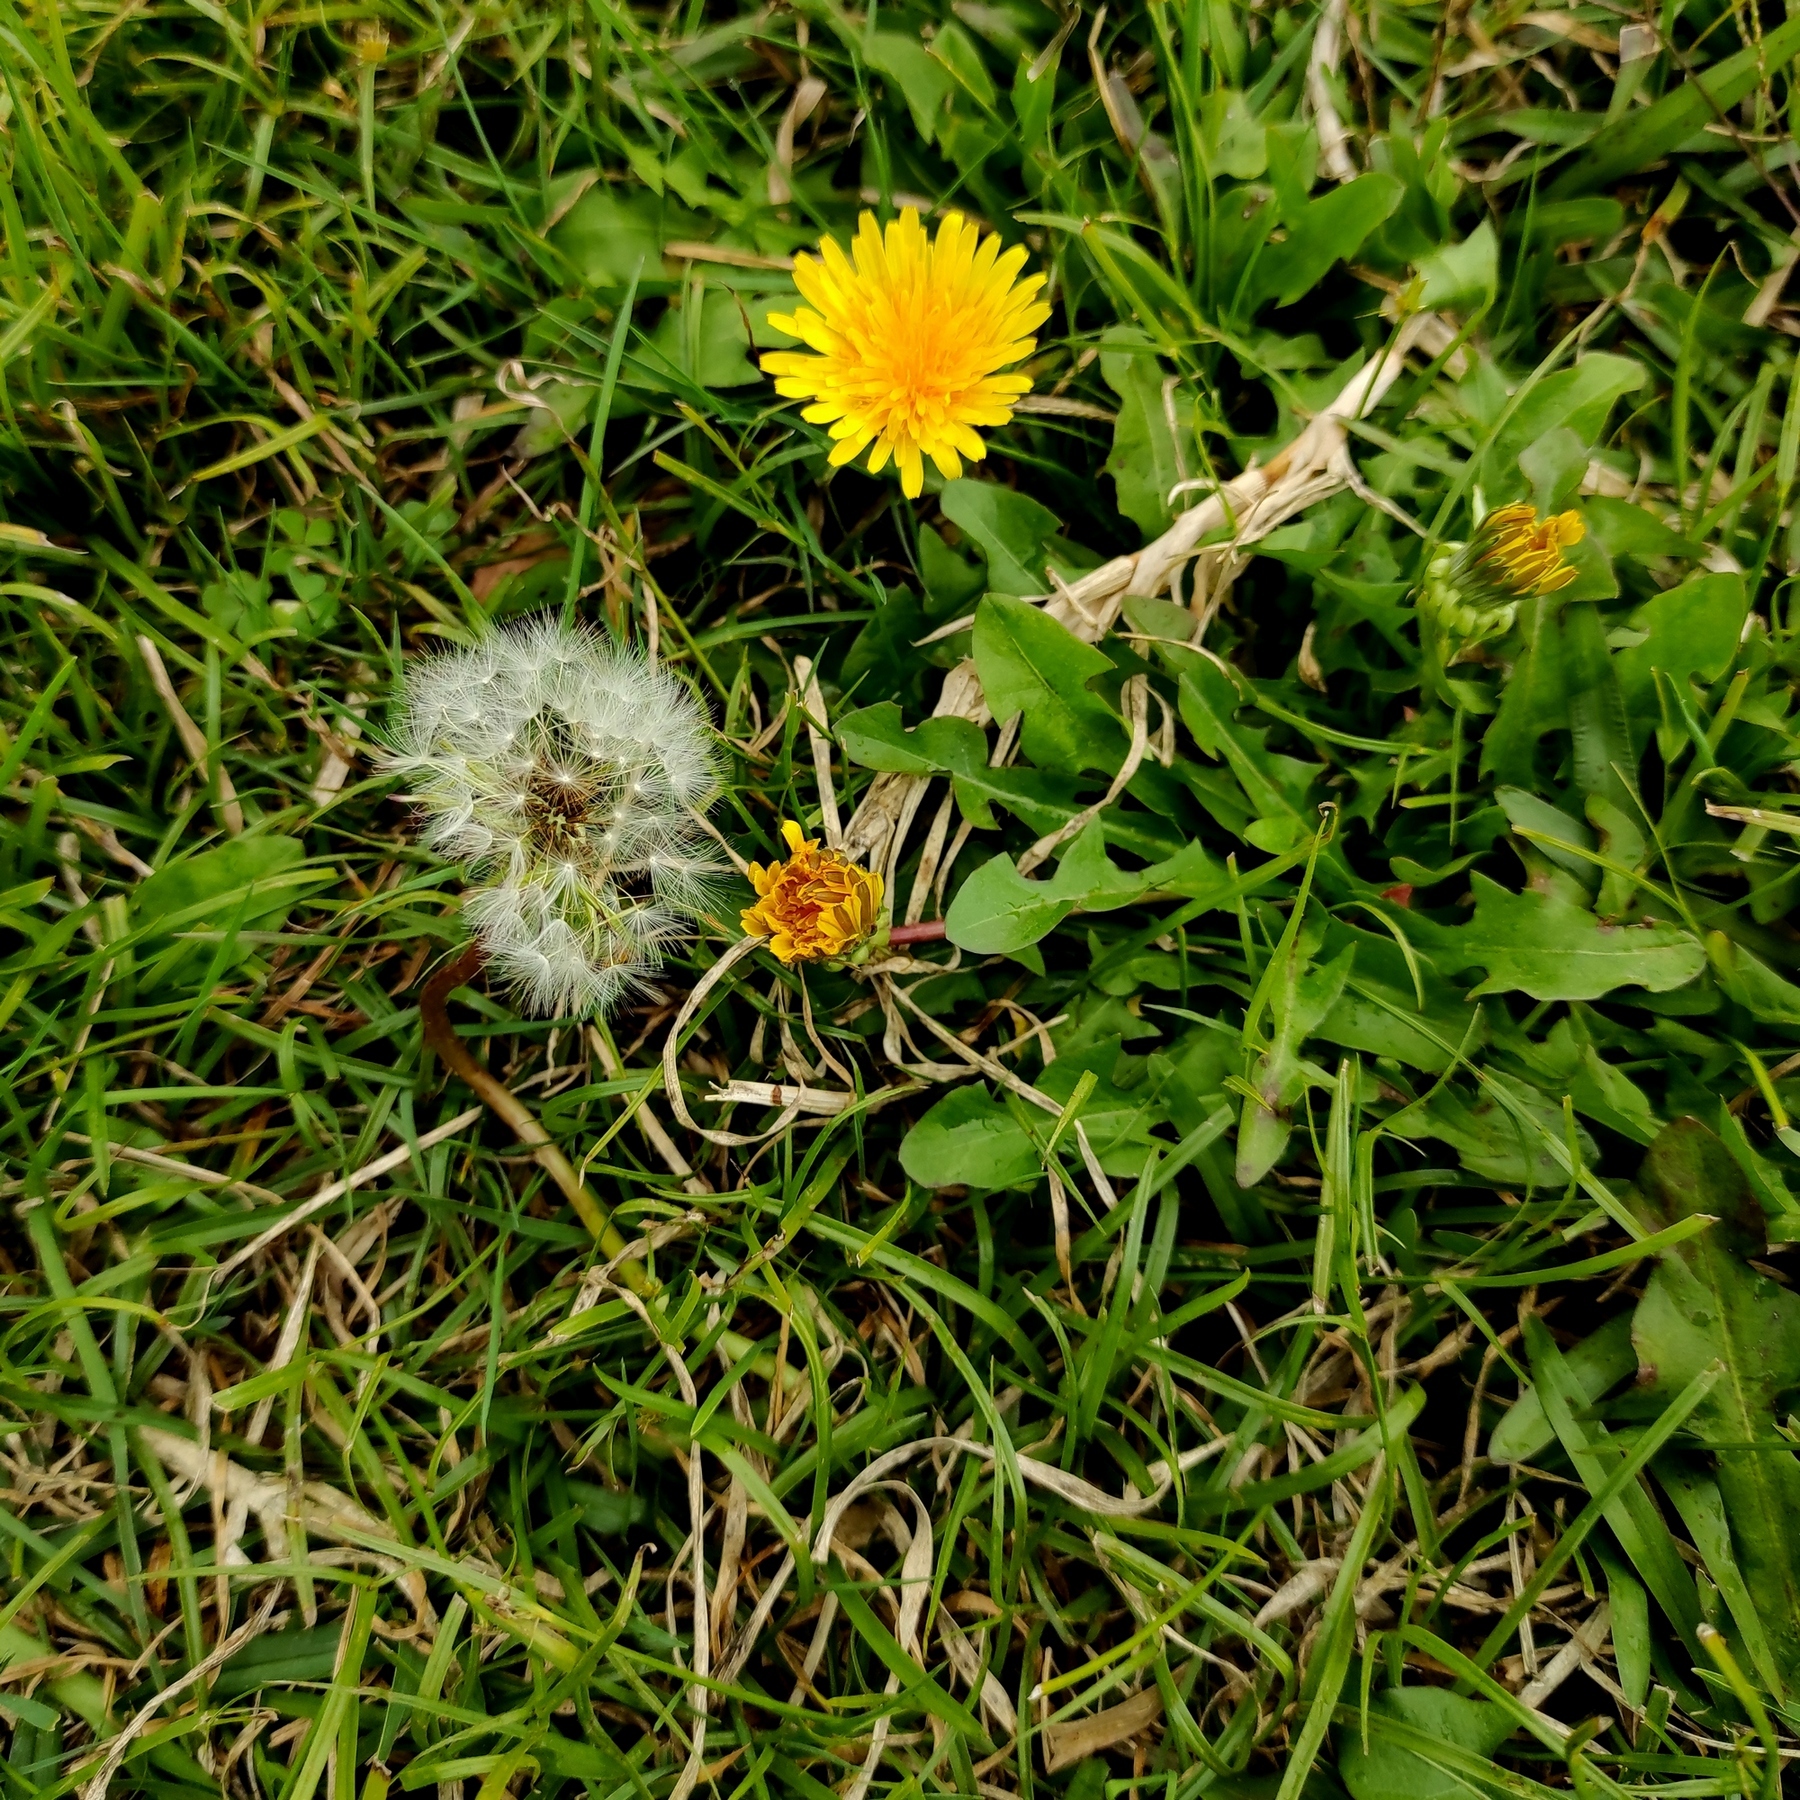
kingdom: Plantae
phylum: Tracheophyta
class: Magnoliopsida
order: Asterales
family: Asteraceae
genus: Taraxacum
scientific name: Taraxacum officinale
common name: Common dandelion
